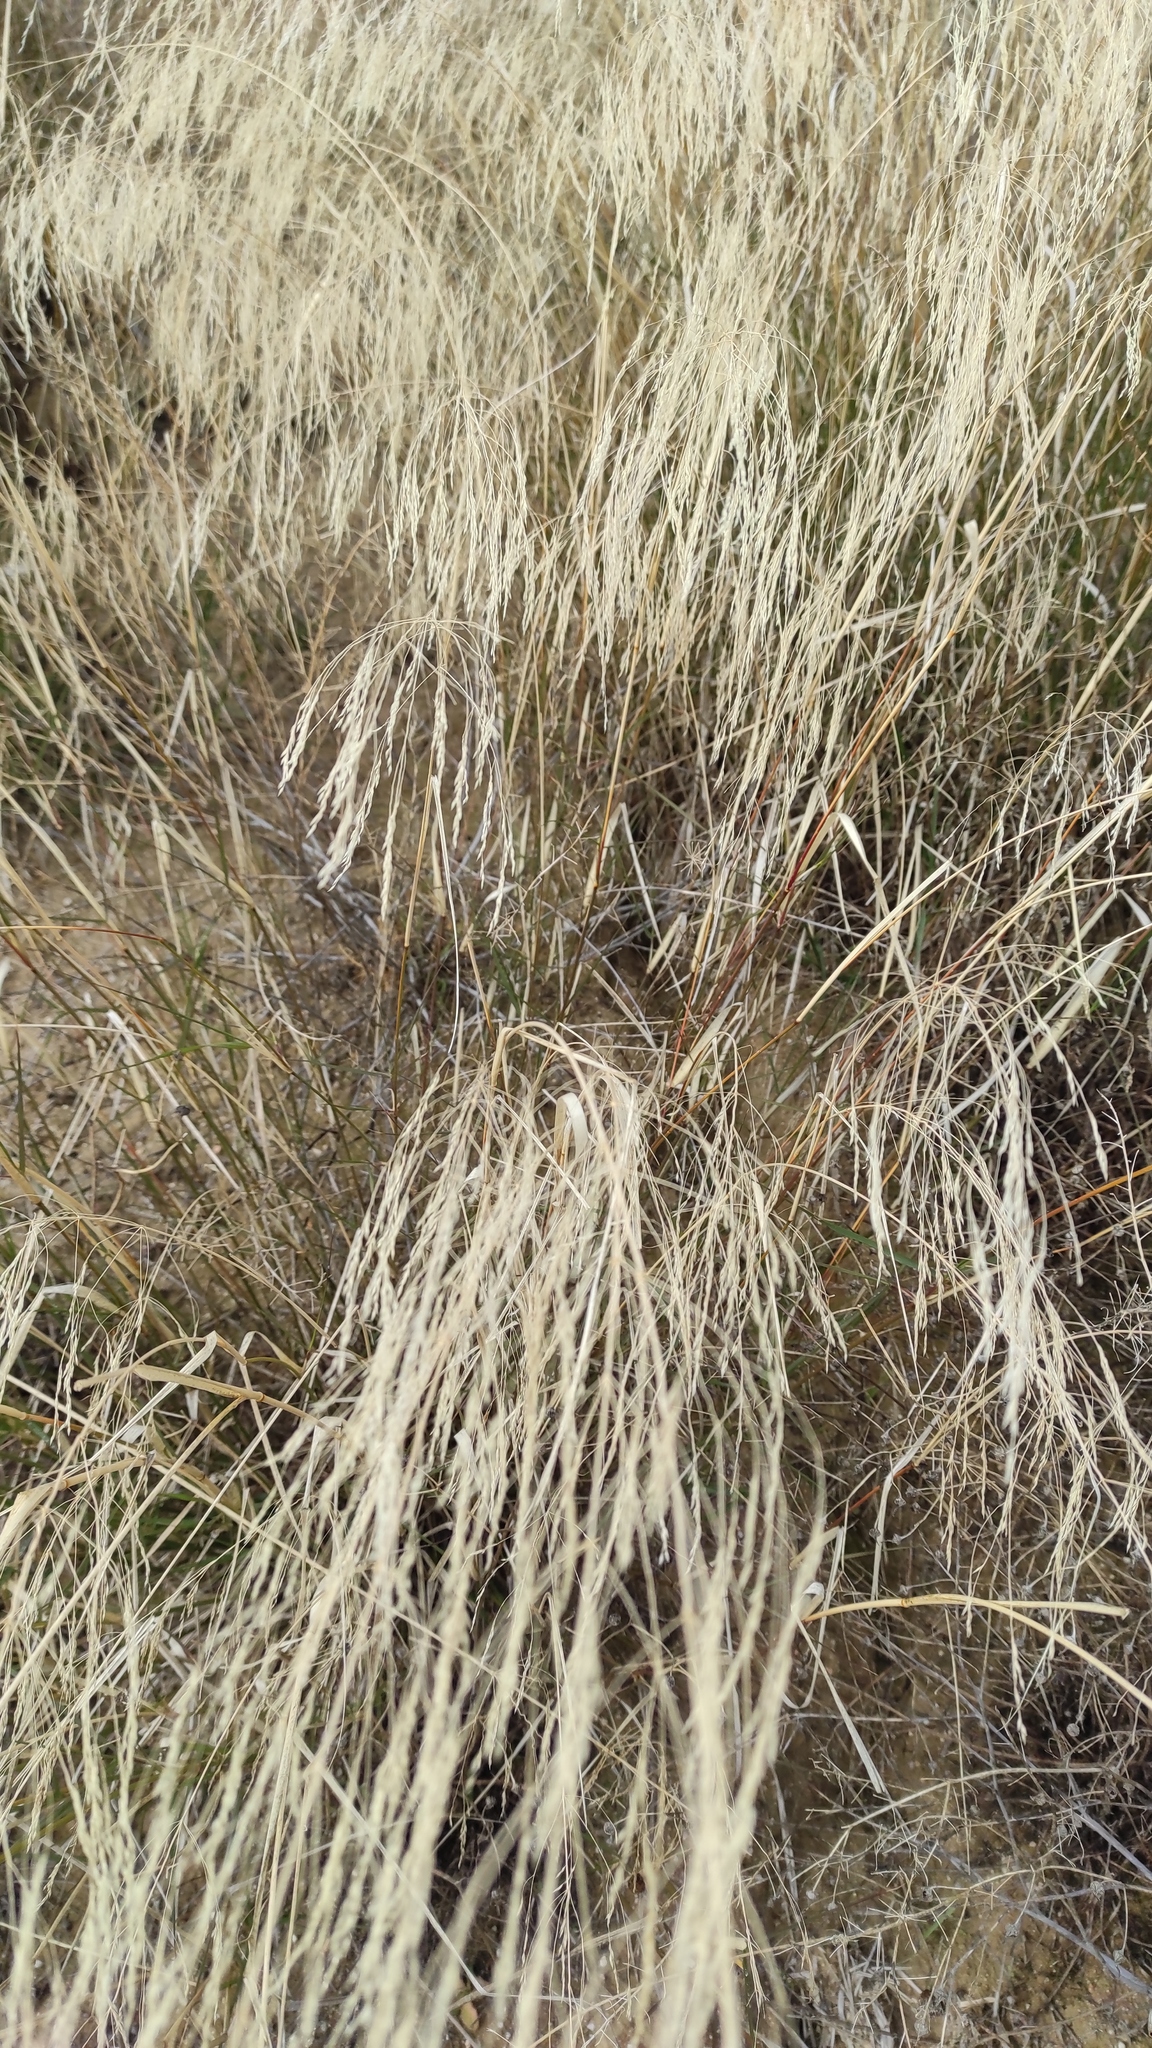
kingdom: Plantae
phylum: Tracheophyta
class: Liliopsida
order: Poales
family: Poaceae
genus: Oloptum
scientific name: Oloptum miliaceum
